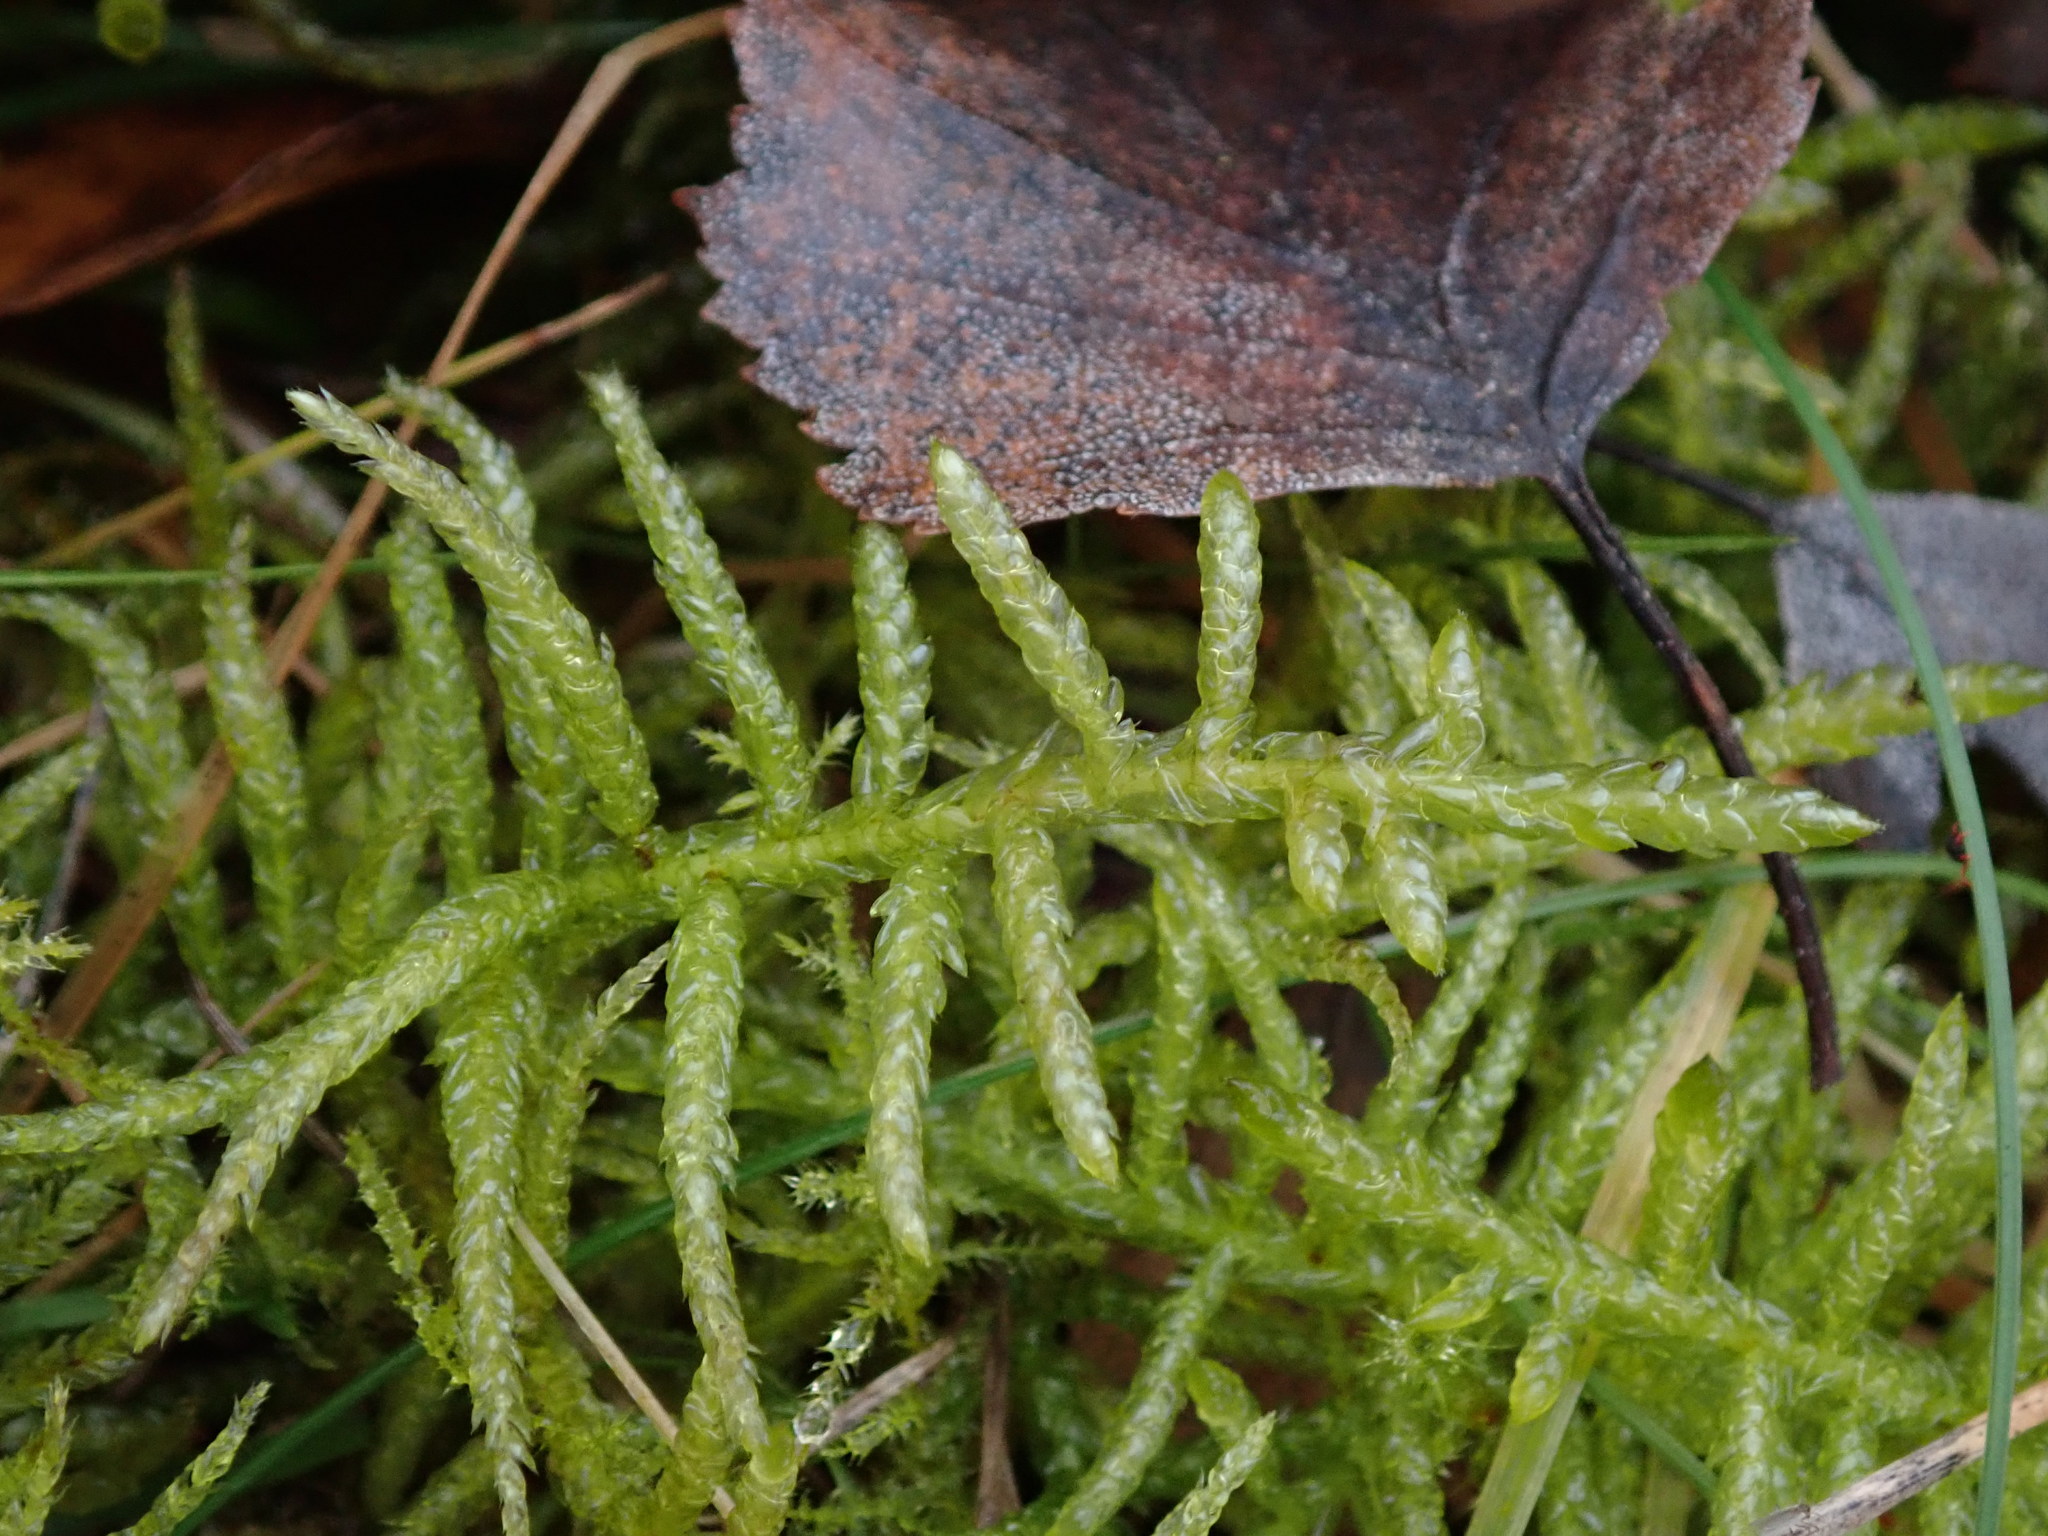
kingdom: Plantae
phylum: Bryophyta
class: Bryopsida
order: Hypnales
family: Brachytheciaceae
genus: Pseudoscleropodium
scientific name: Pseudoscleropodium purum
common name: Neat feather-moss
